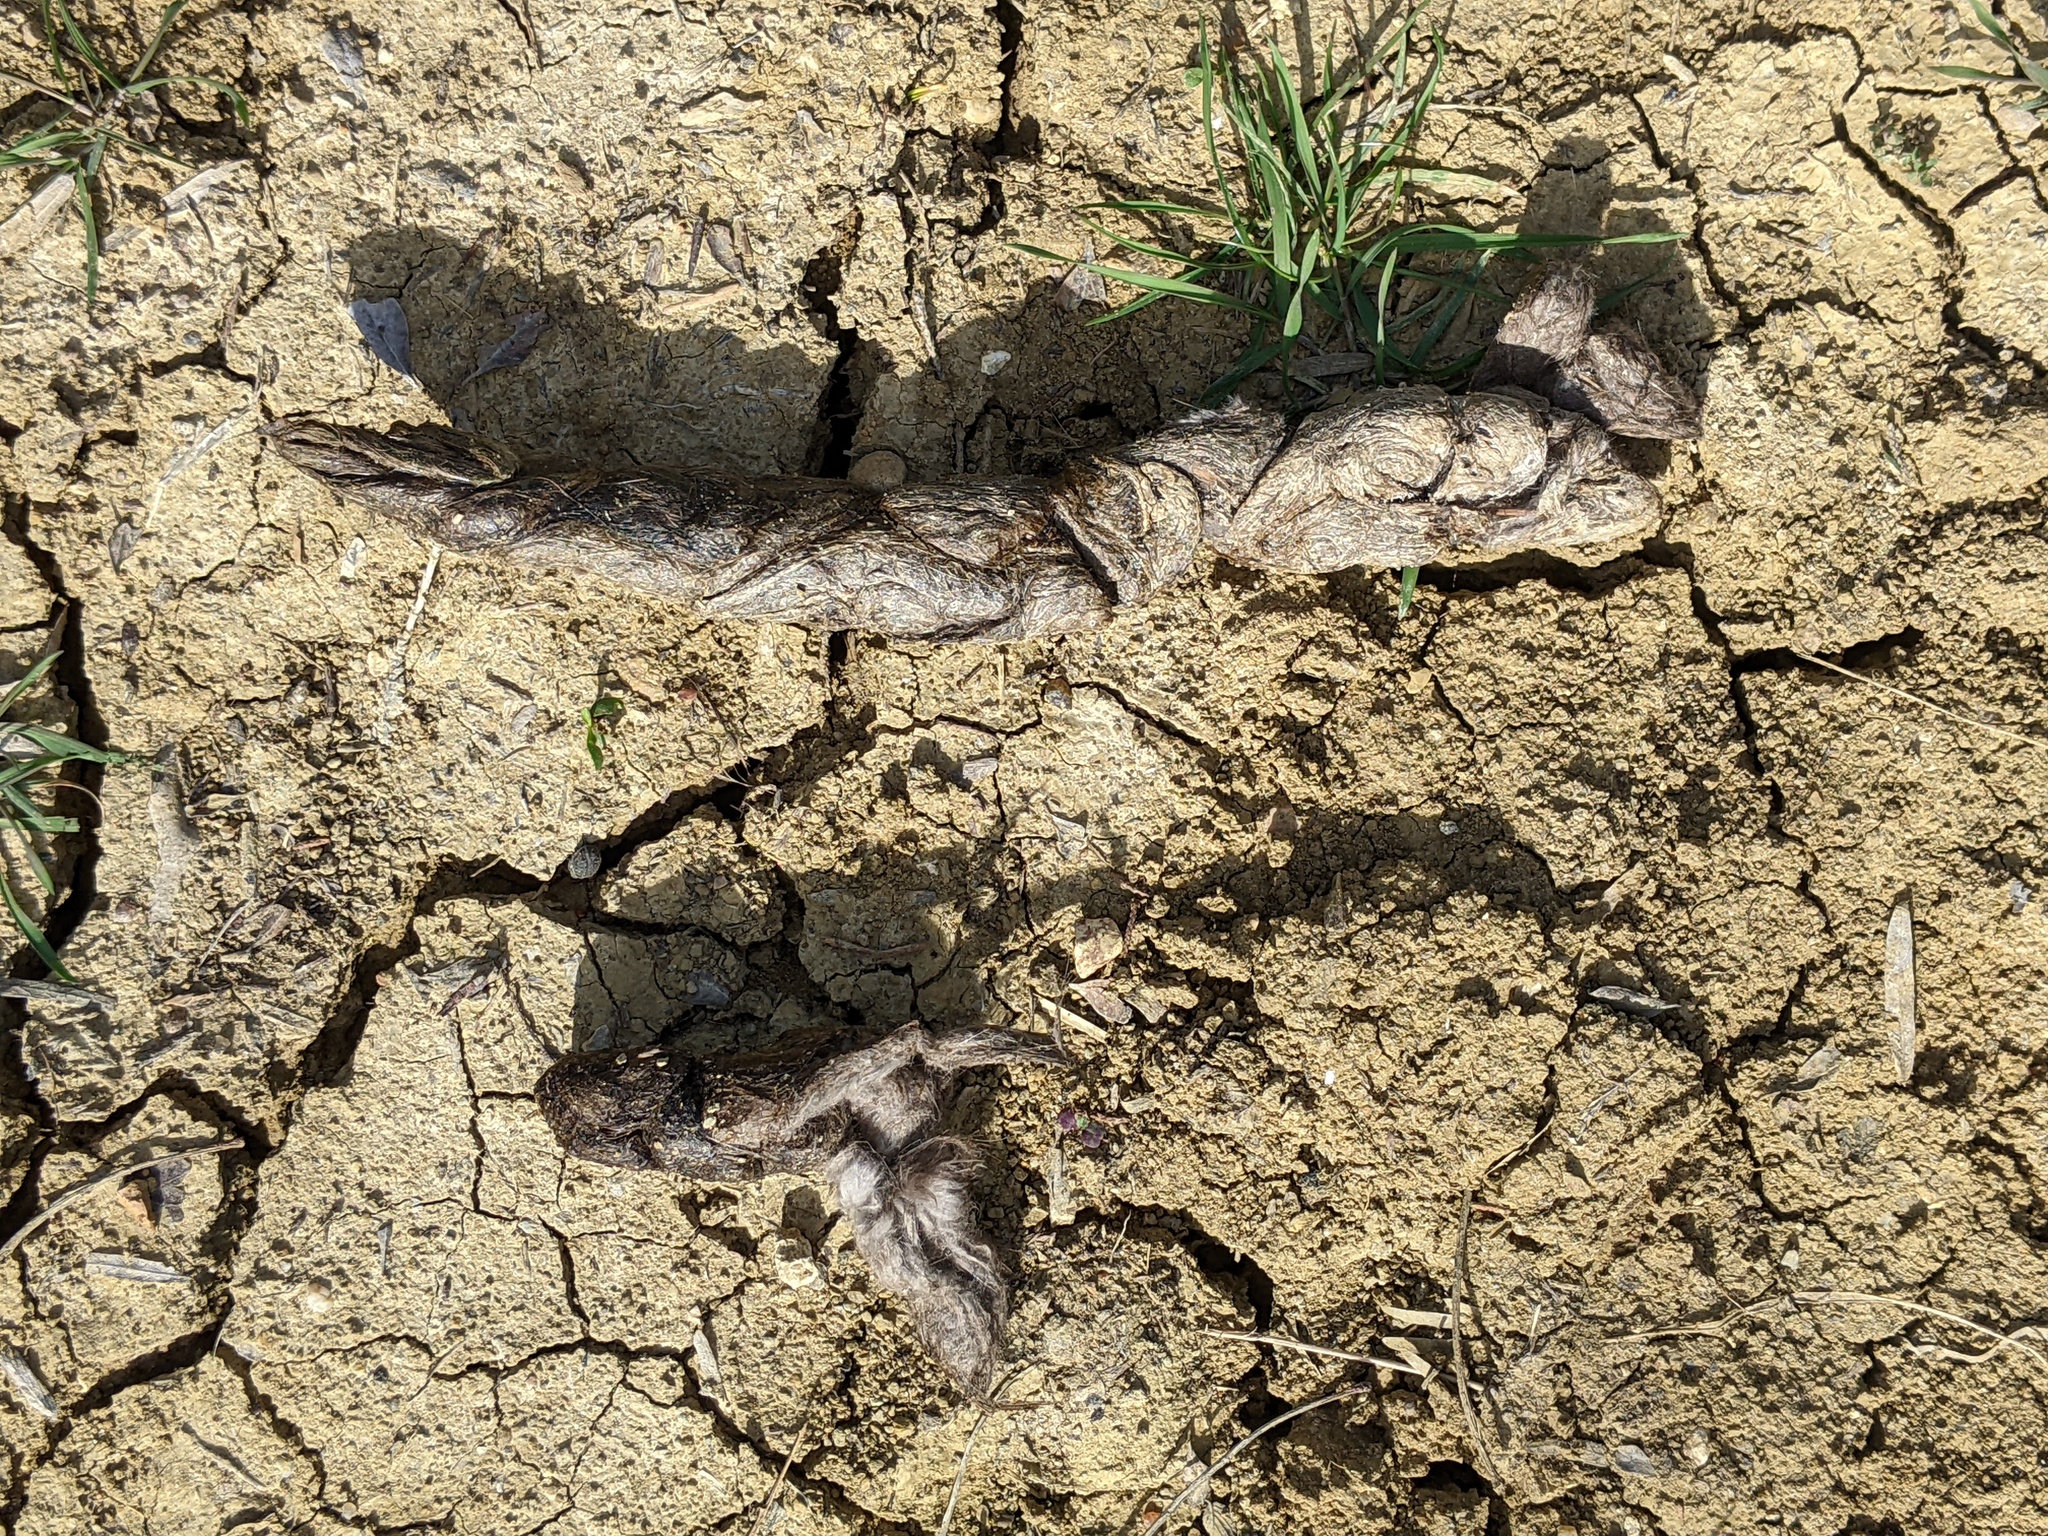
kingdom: Animalia
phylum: Chordata
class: Mammalia
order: Carnivora
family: Canidae
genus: Canis
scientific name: Canis latrans
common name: Coyote
